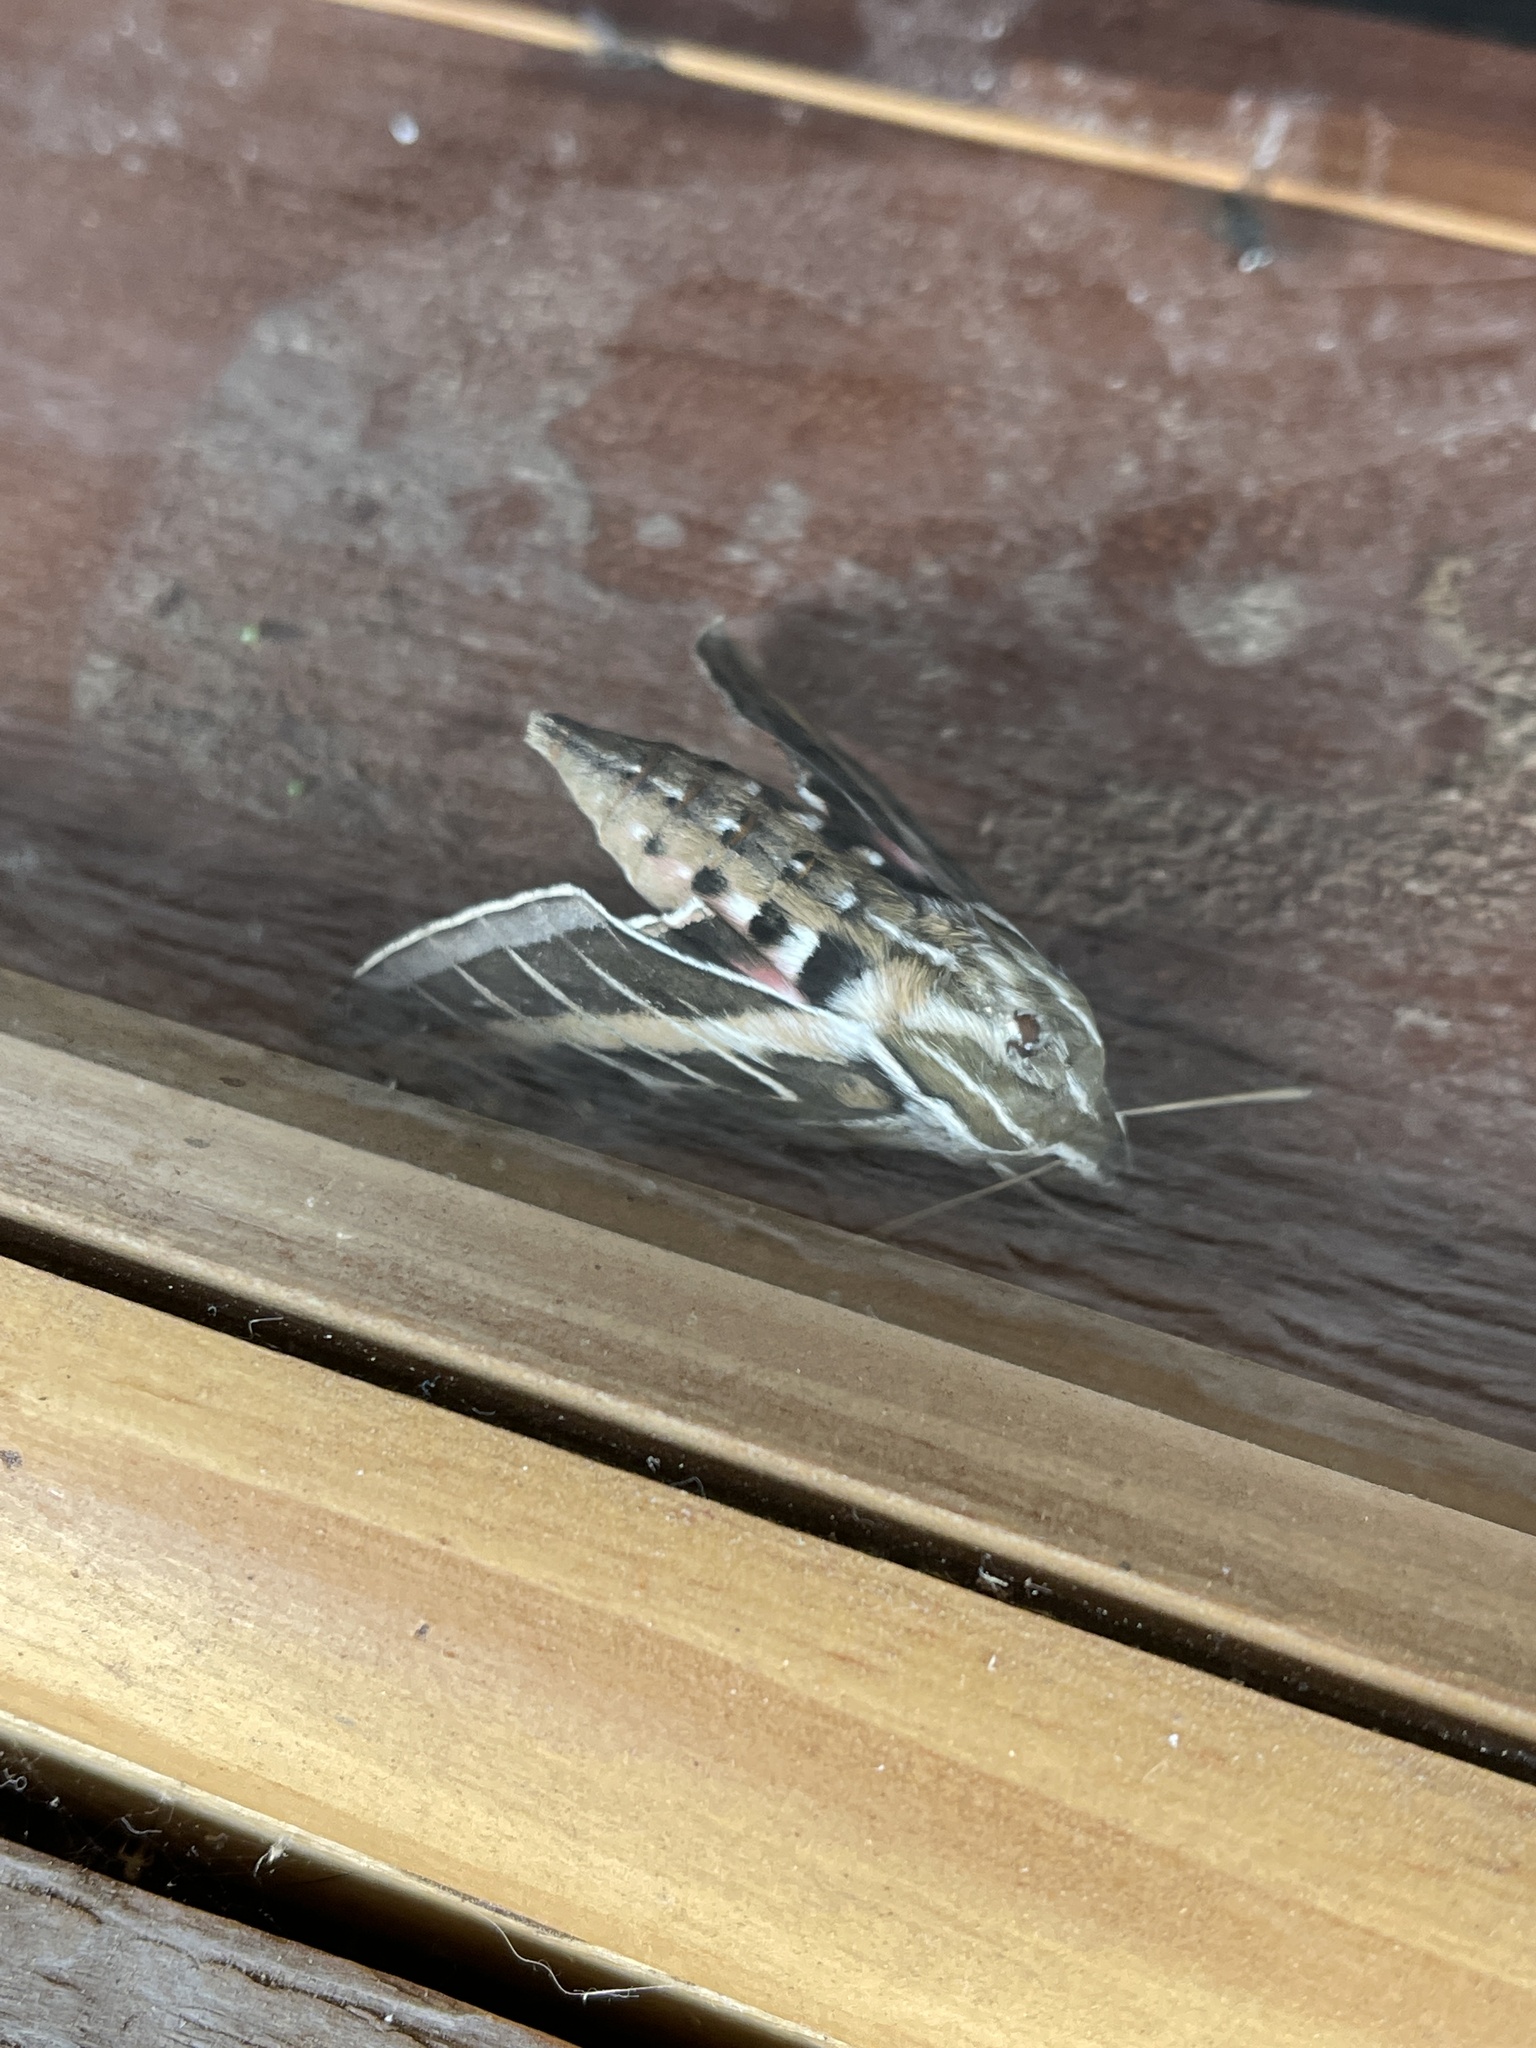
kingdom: Animalia
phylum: Arthropoda
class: Insecta
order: Lepidoptera
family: Sphingidae
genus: Hyles
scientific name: Hyles lineata
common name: White-lined sphinx
